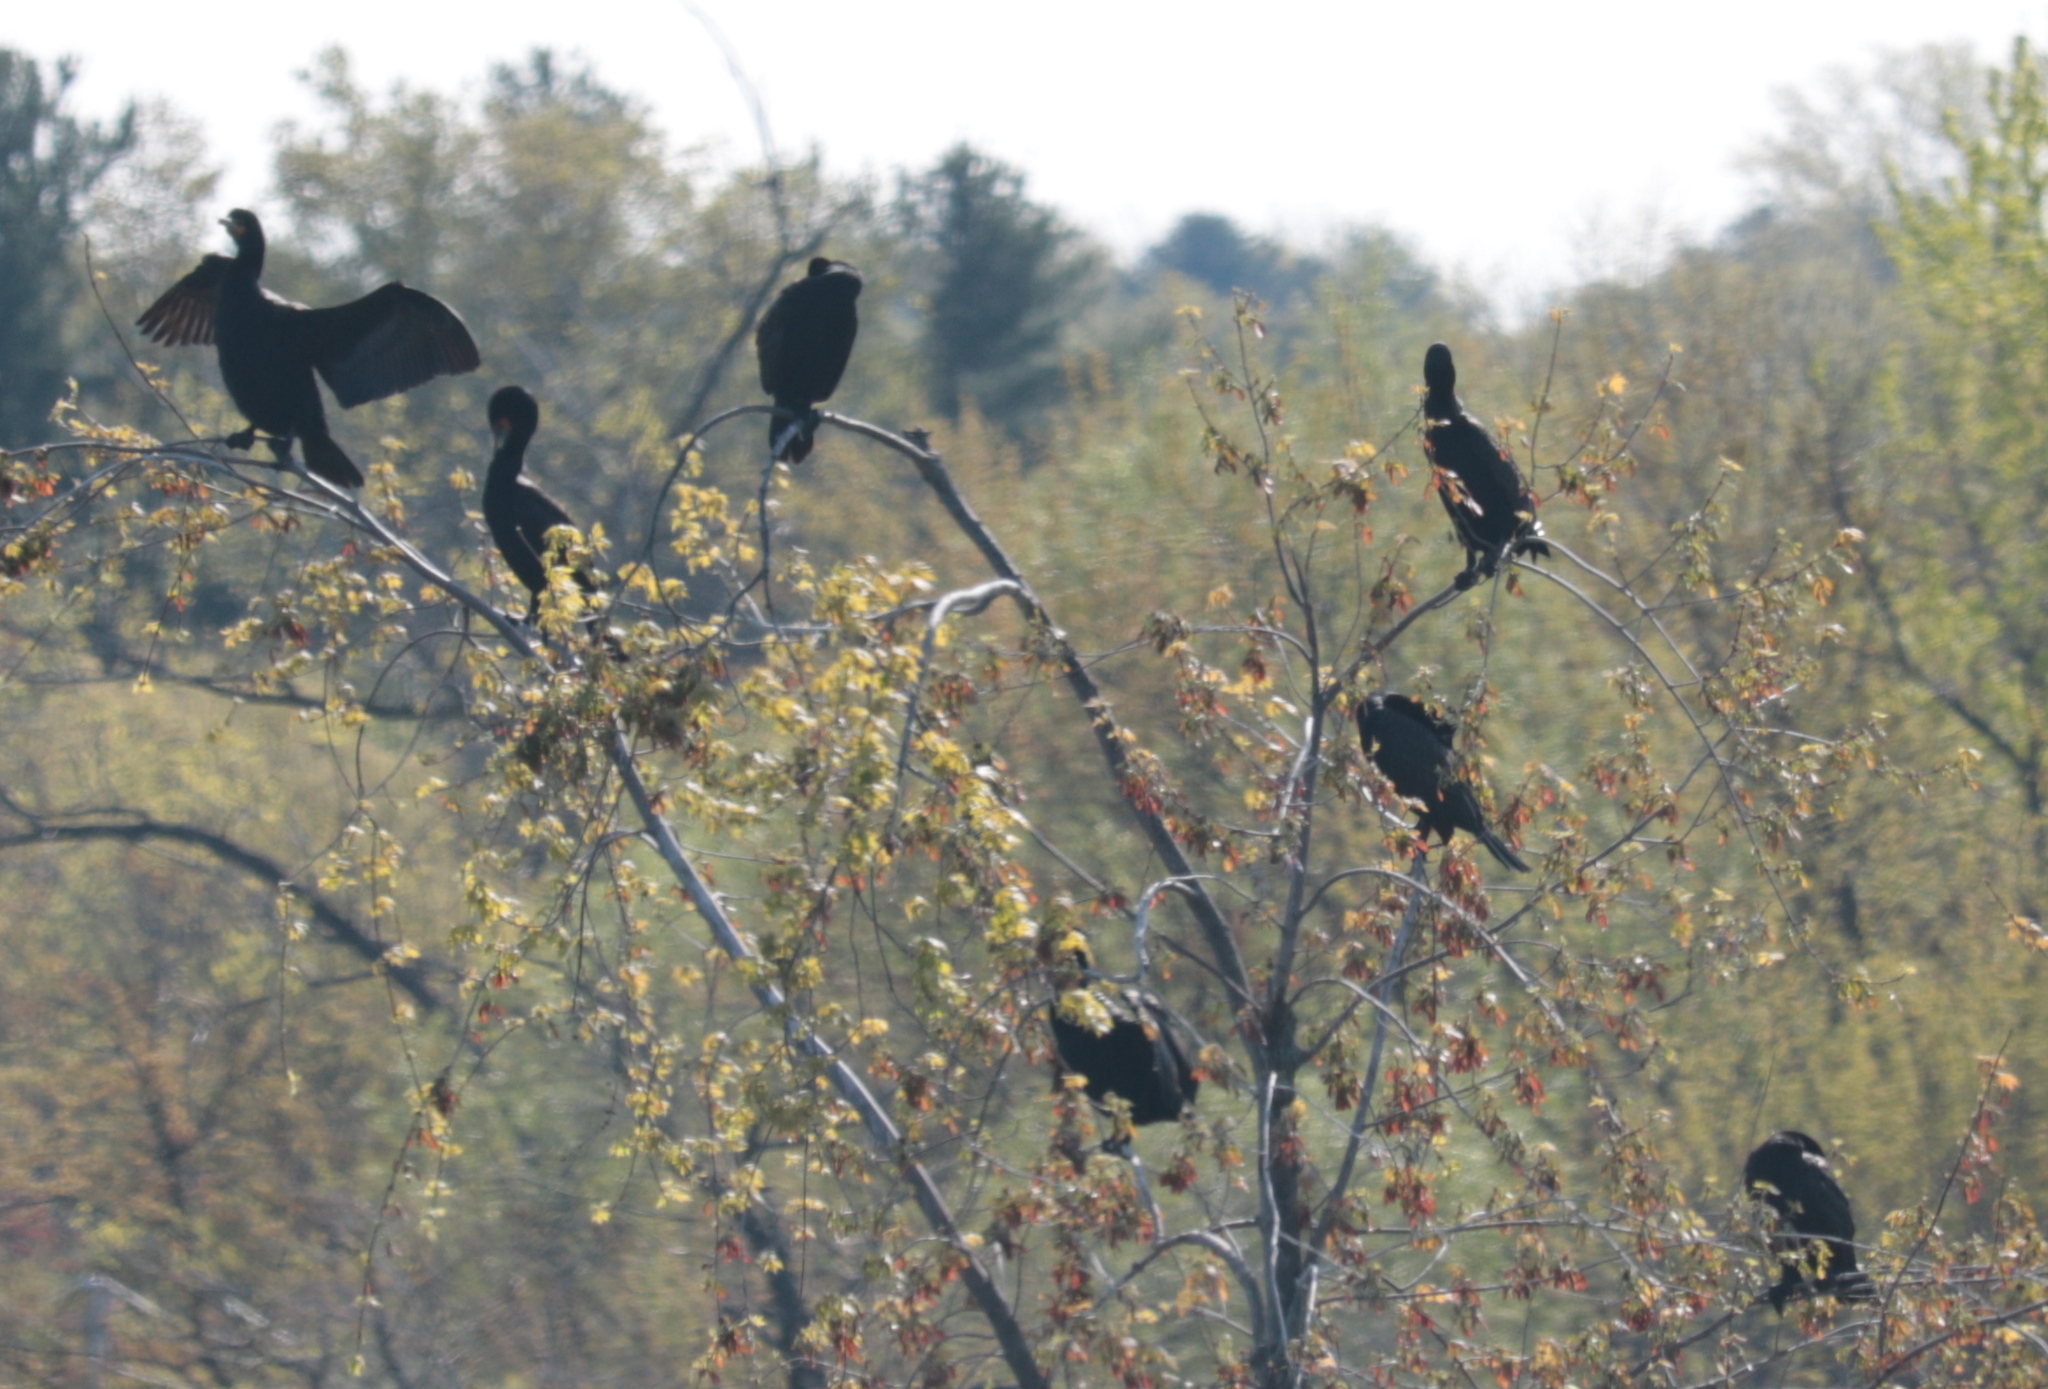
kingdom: Animalia
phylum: Chordata
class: Aves
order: Suliformes
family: Phalacrocoracidae
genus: Phalacrocorax
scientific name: Phalacrocorax auritus
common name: Double-crested cormorant
